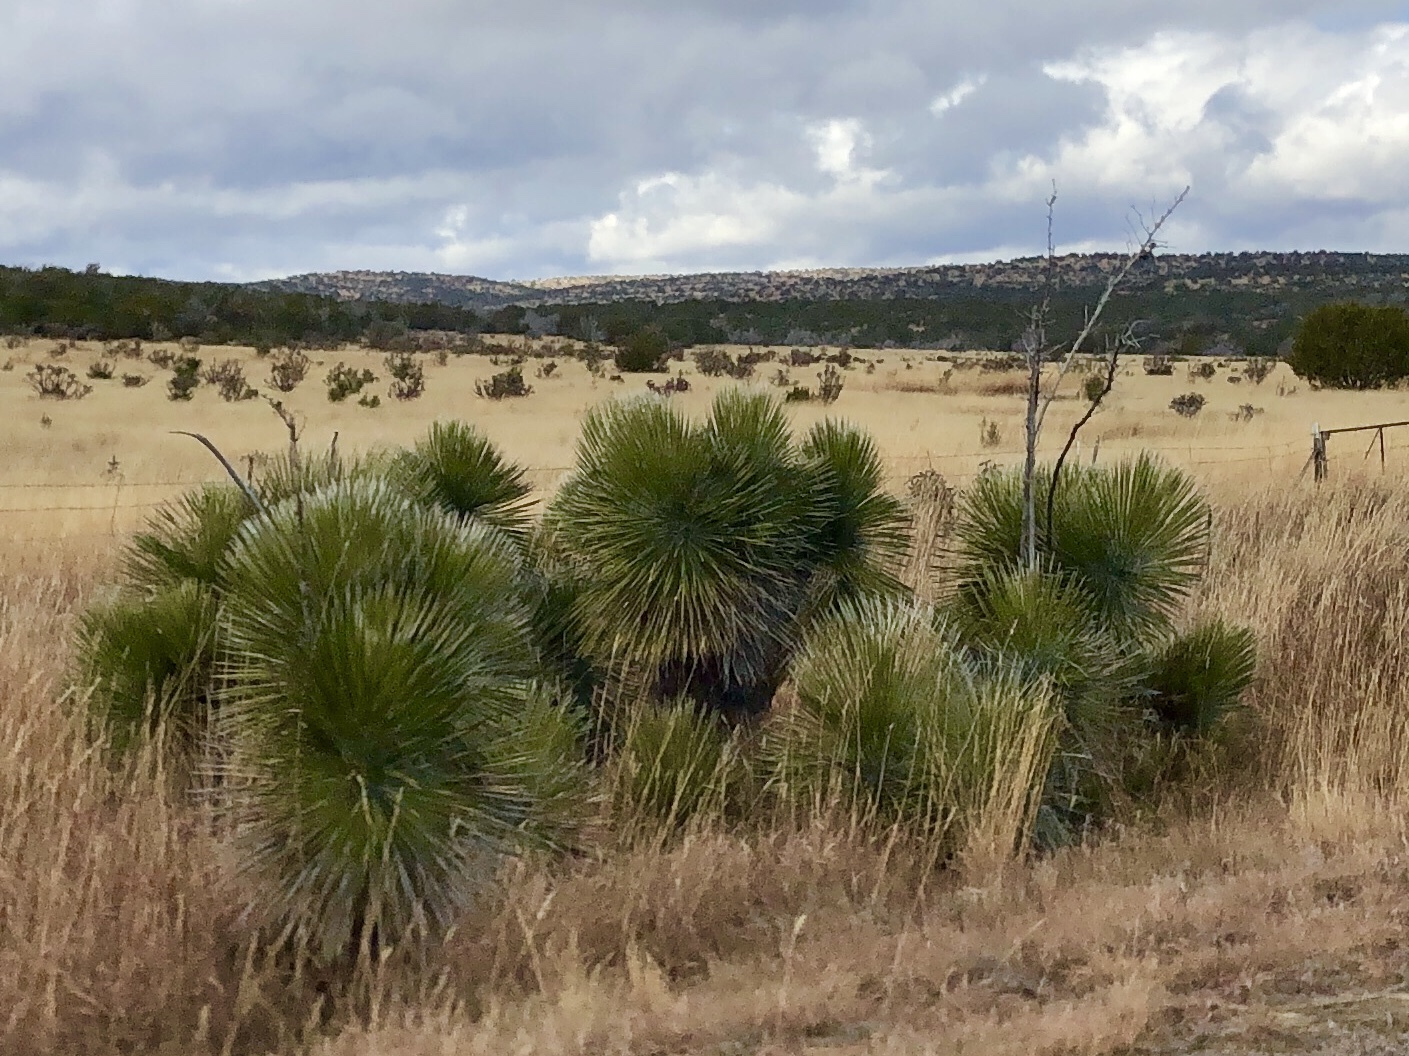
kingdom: Plantae
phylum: Tracheophyta
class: Liliopsida
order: Asparagales
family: Asparagaceae
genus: Yucca
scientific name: Yucca elata
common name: Palmella
